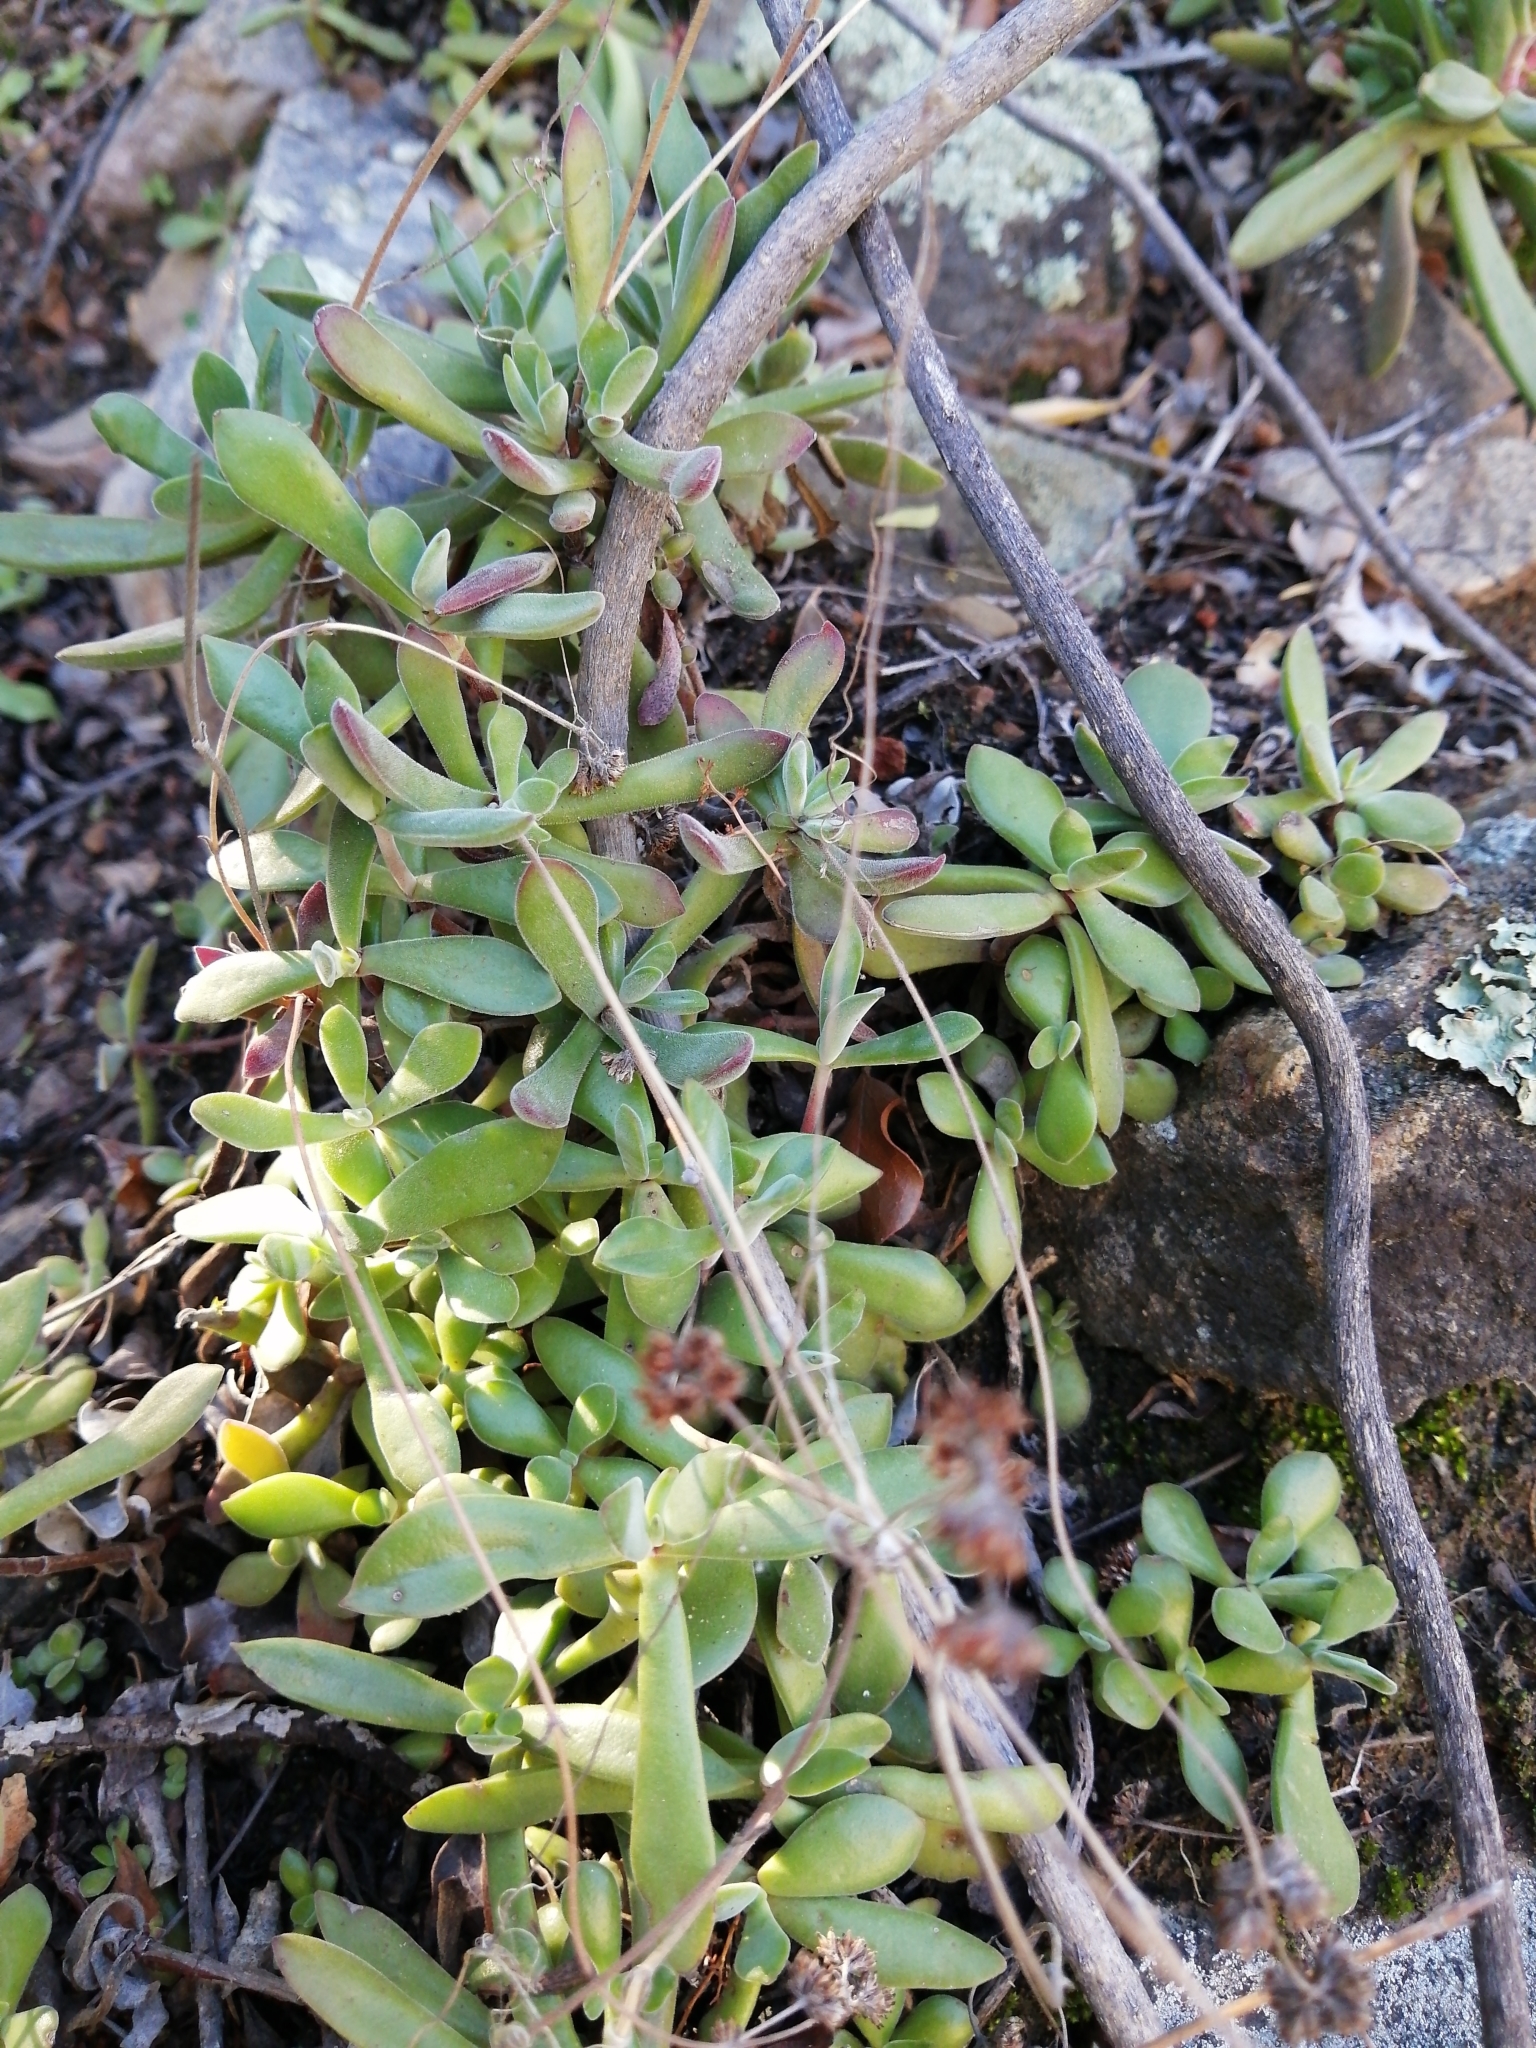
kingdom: Plantae
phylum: Tracheophyta
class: Magnoliopsida
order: Saxifragales
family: Crassulaceae
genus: Crassula
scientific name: Crassula pubescens
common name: Jersey pigmyweed
